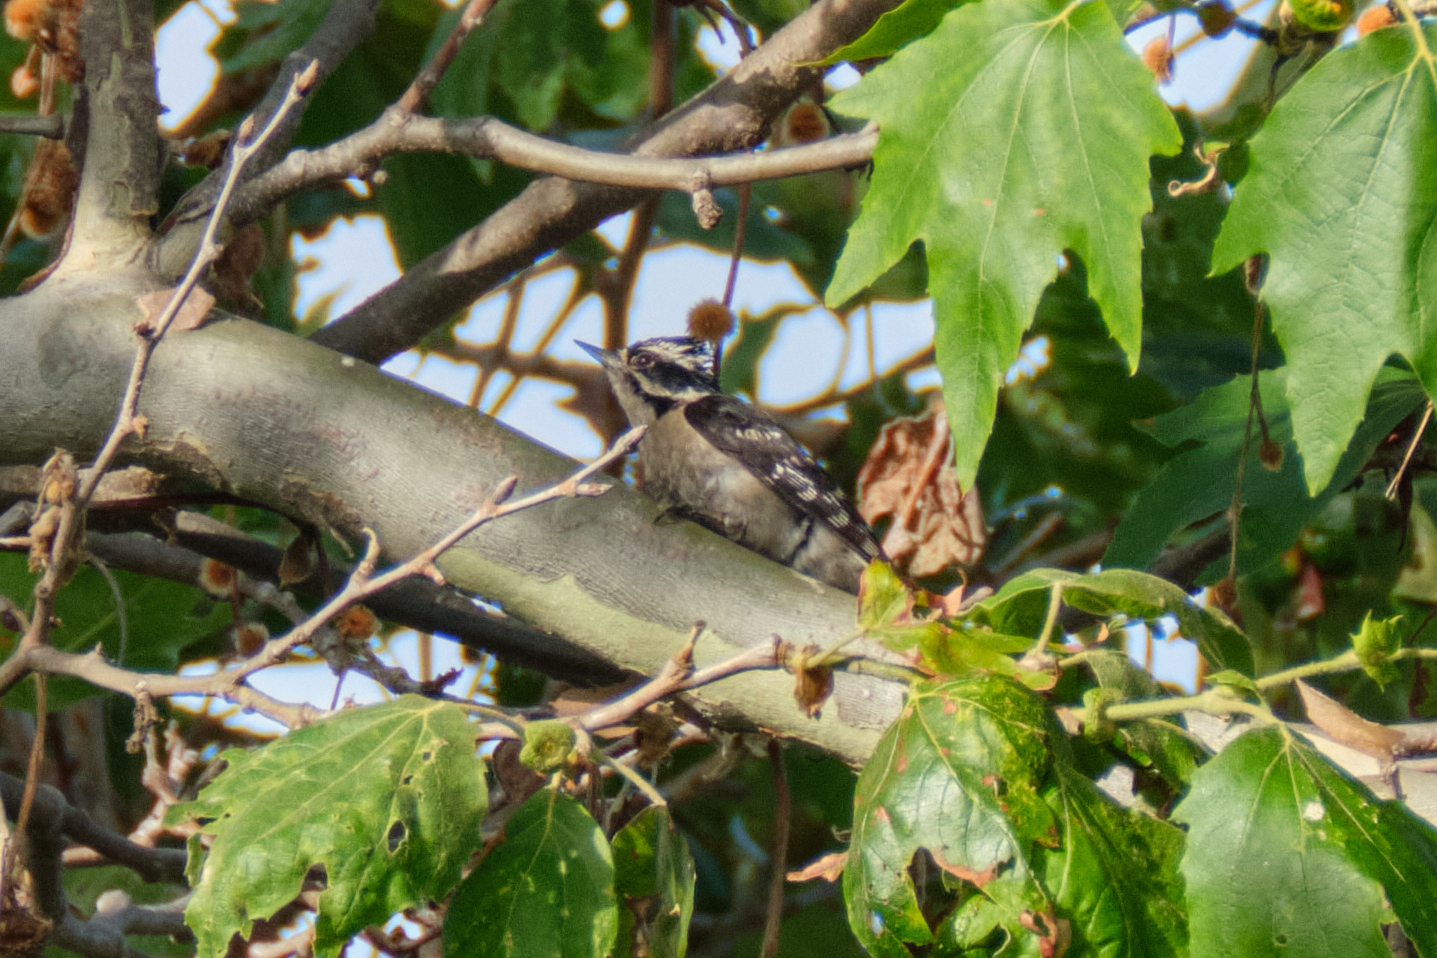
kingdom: Animalia
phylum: Chordata
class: Aves
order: Piciformes
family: Picidae
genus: Dryobates
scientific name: Dryobates pubescens
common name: Downy woodpecker
